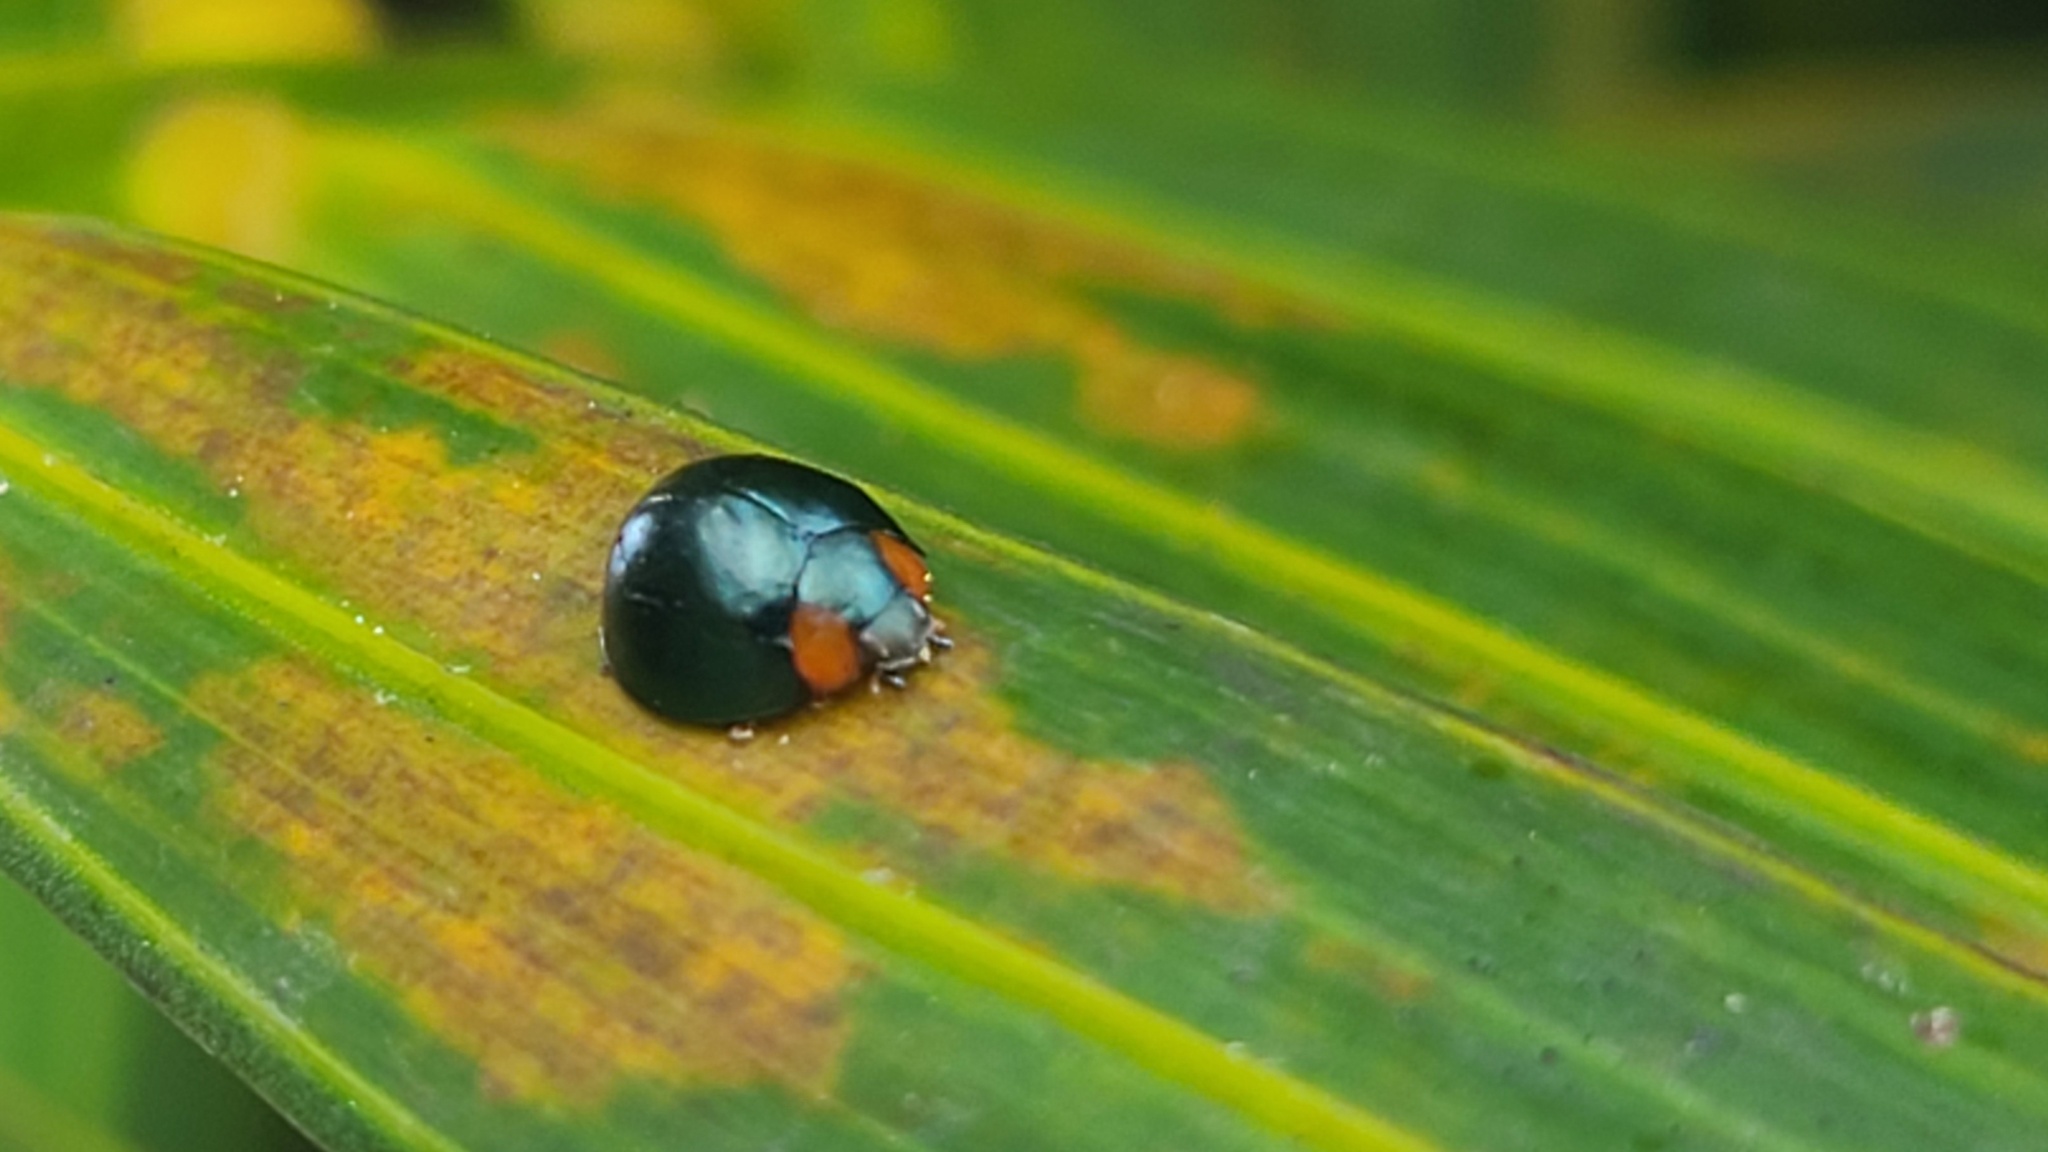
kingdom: Animalia
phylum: Arthropoda
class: Insecta
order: Coleoptera
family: Coccinellidae
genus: Curinus
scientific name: Curinus coeruleus
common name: Ladybird beetle
